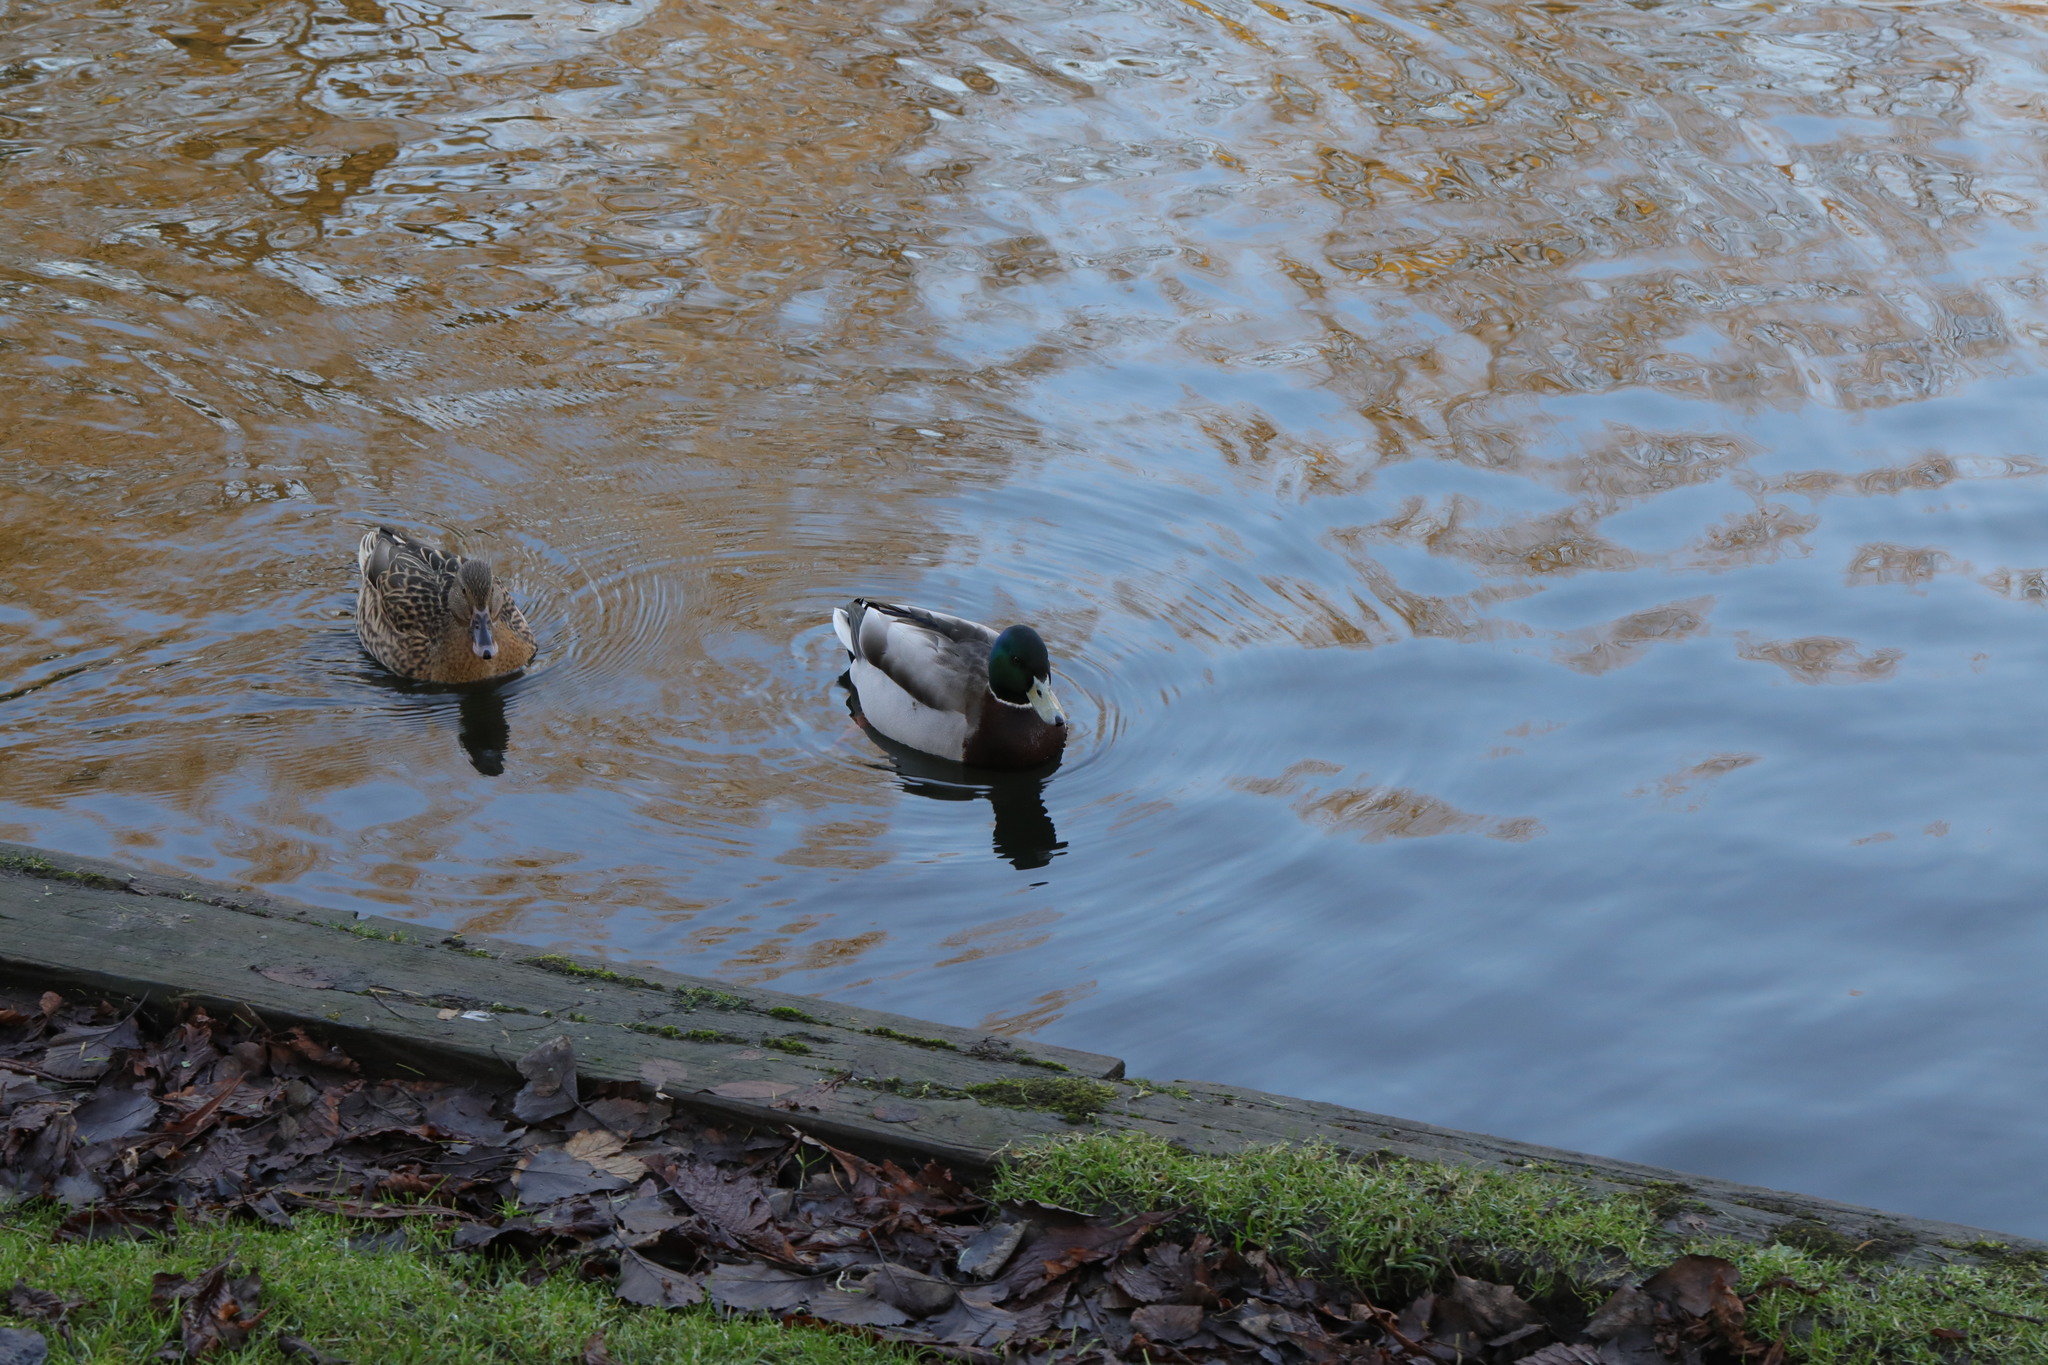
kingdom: Animalia
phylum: Chordata
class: Aves
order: Anseriformes
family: Anatidae
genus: Anas
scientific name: Anas platyrhynchos
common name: Mallard
